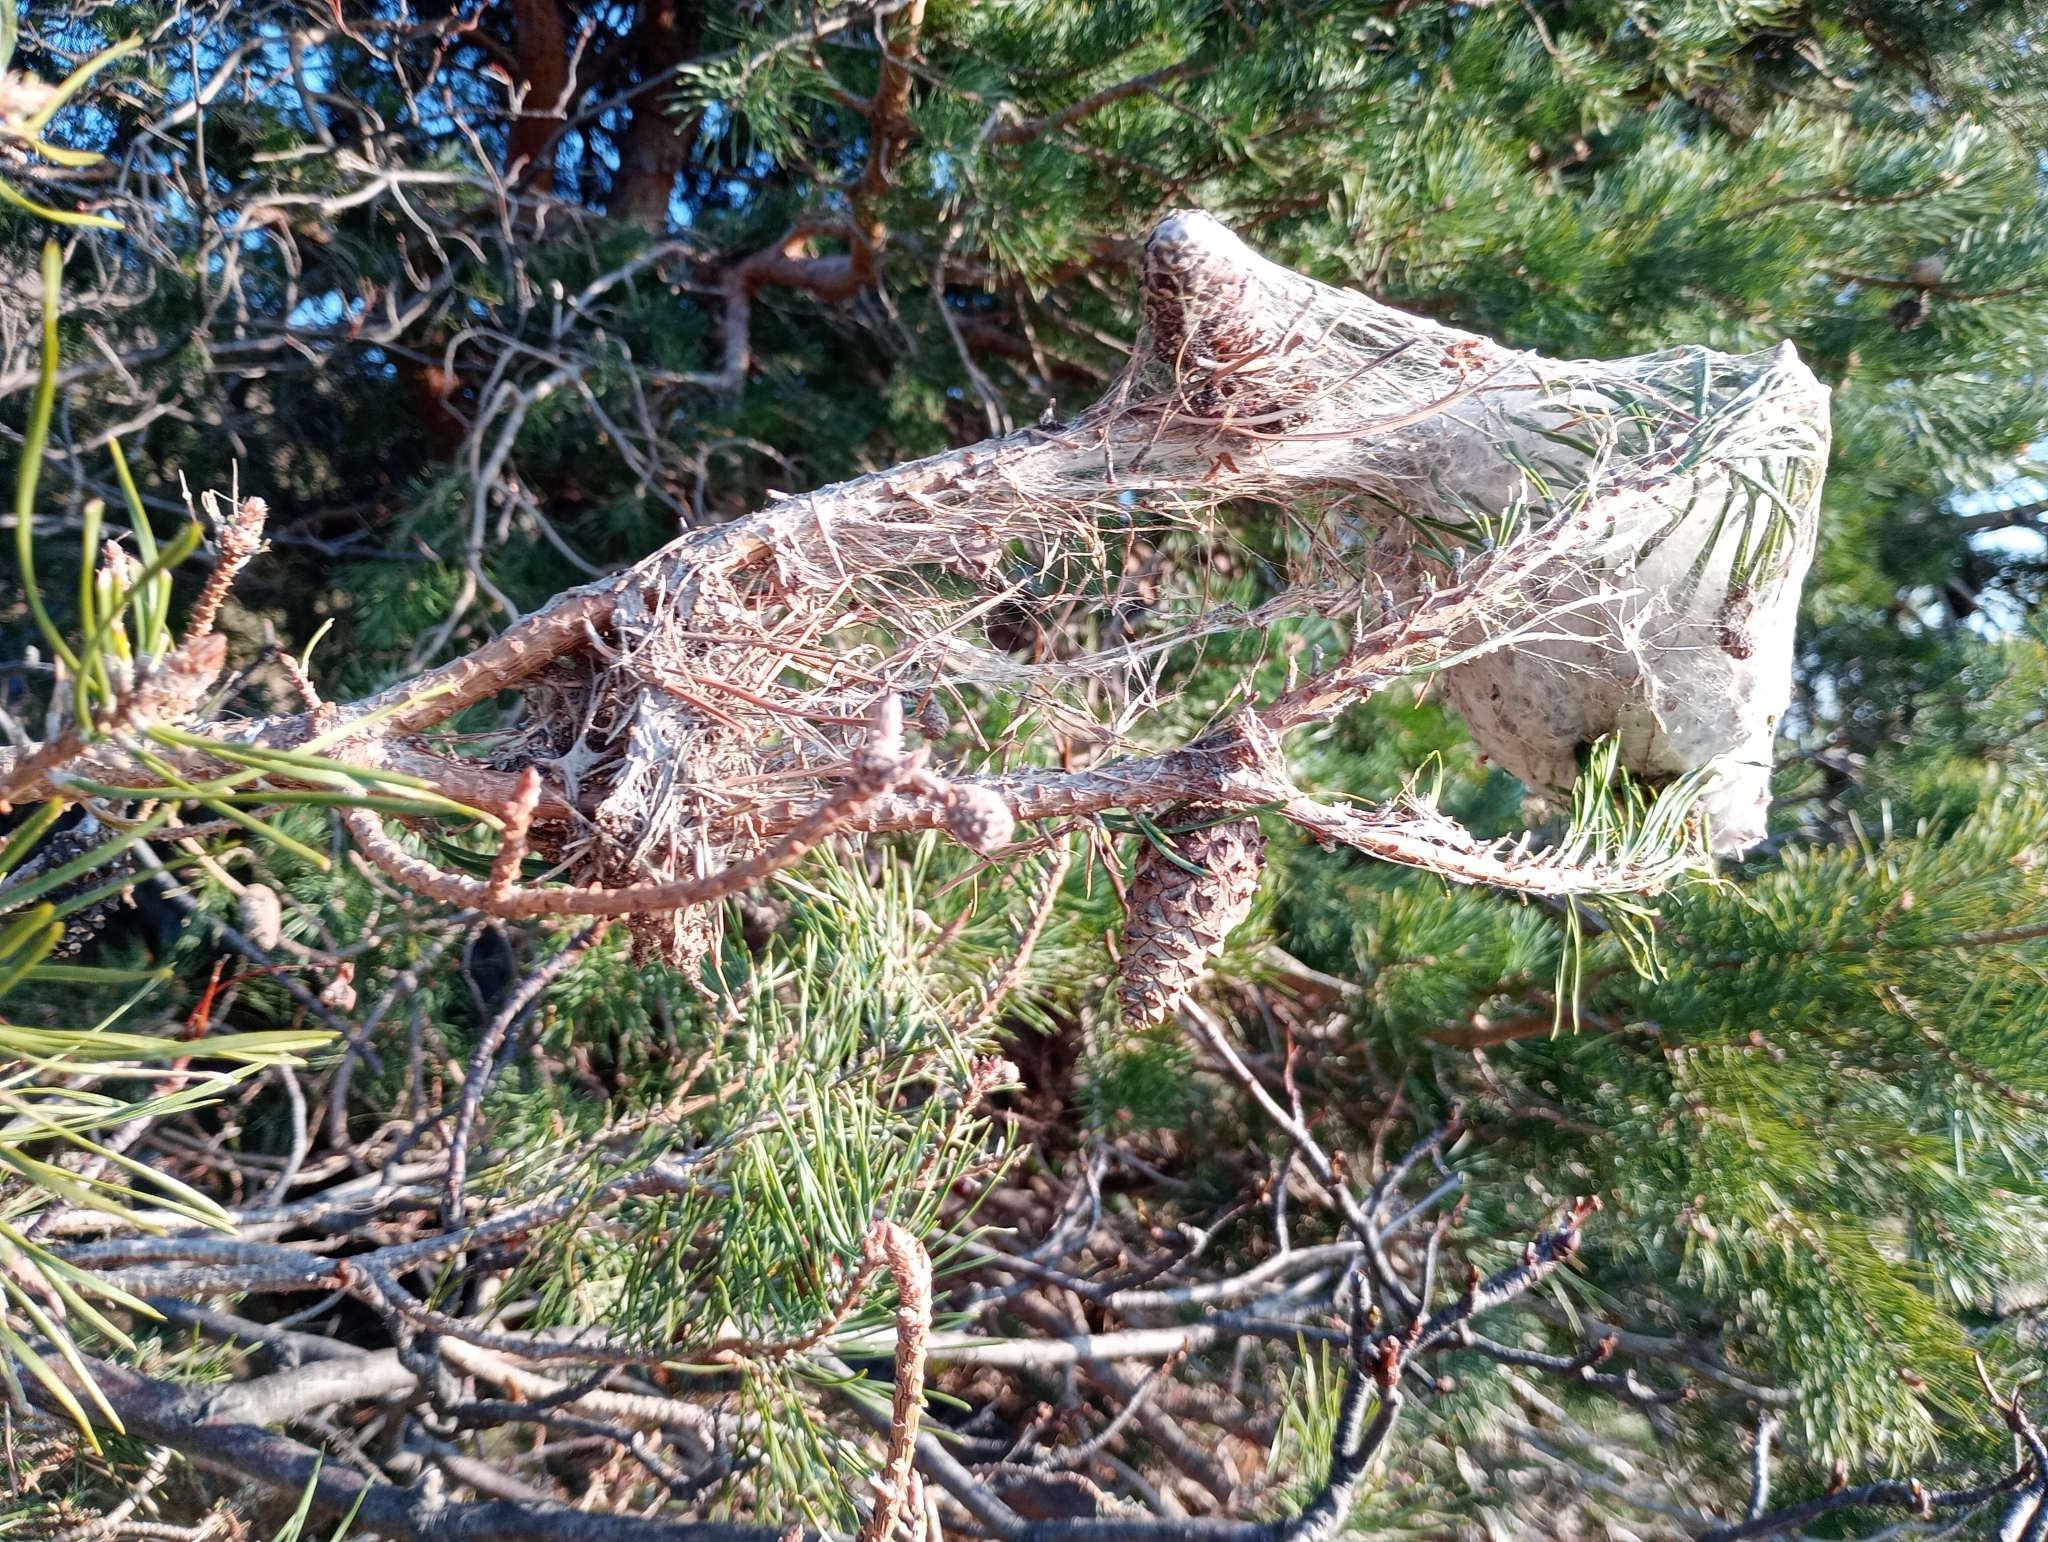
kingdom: Animalia
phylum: Arthropoda
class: Insecta
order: Lepidoptera
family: Notodontidae
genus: Thaumetopoea
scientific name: Thaumetopoea pityocampa
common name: Pine processionary
